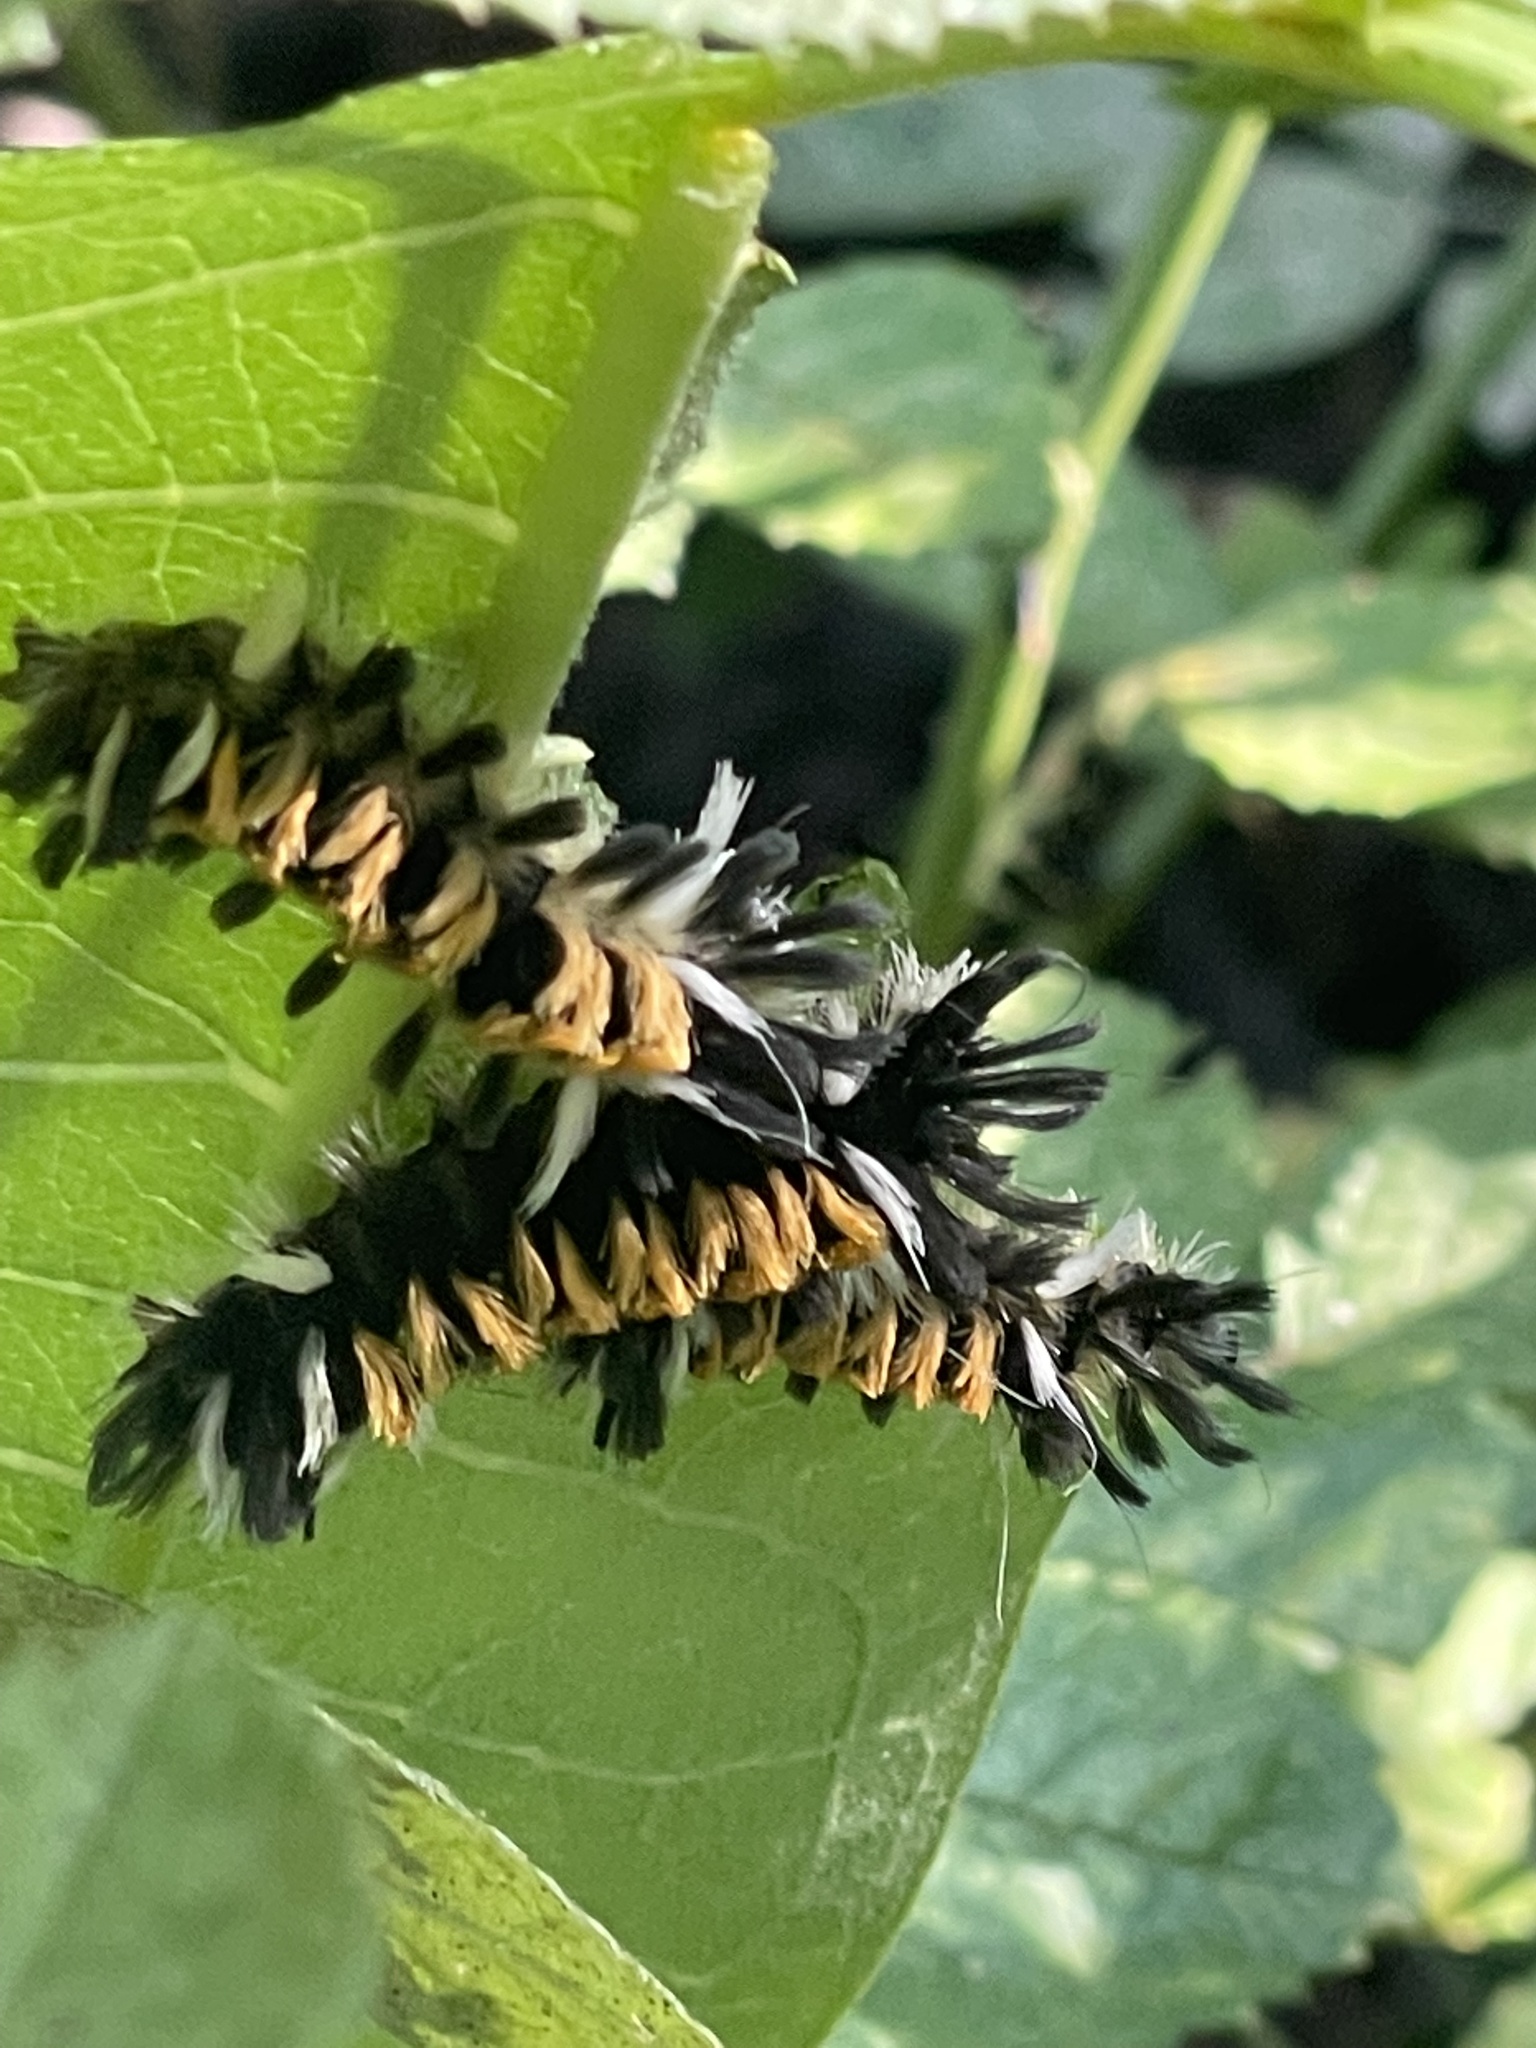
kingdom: Animalia
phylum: Arthropoda
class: Insecta
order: Lepidoptera
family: Erebidae
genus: Euchaetes
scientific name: Euchaetes egle
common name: Milkweed tussock moth
